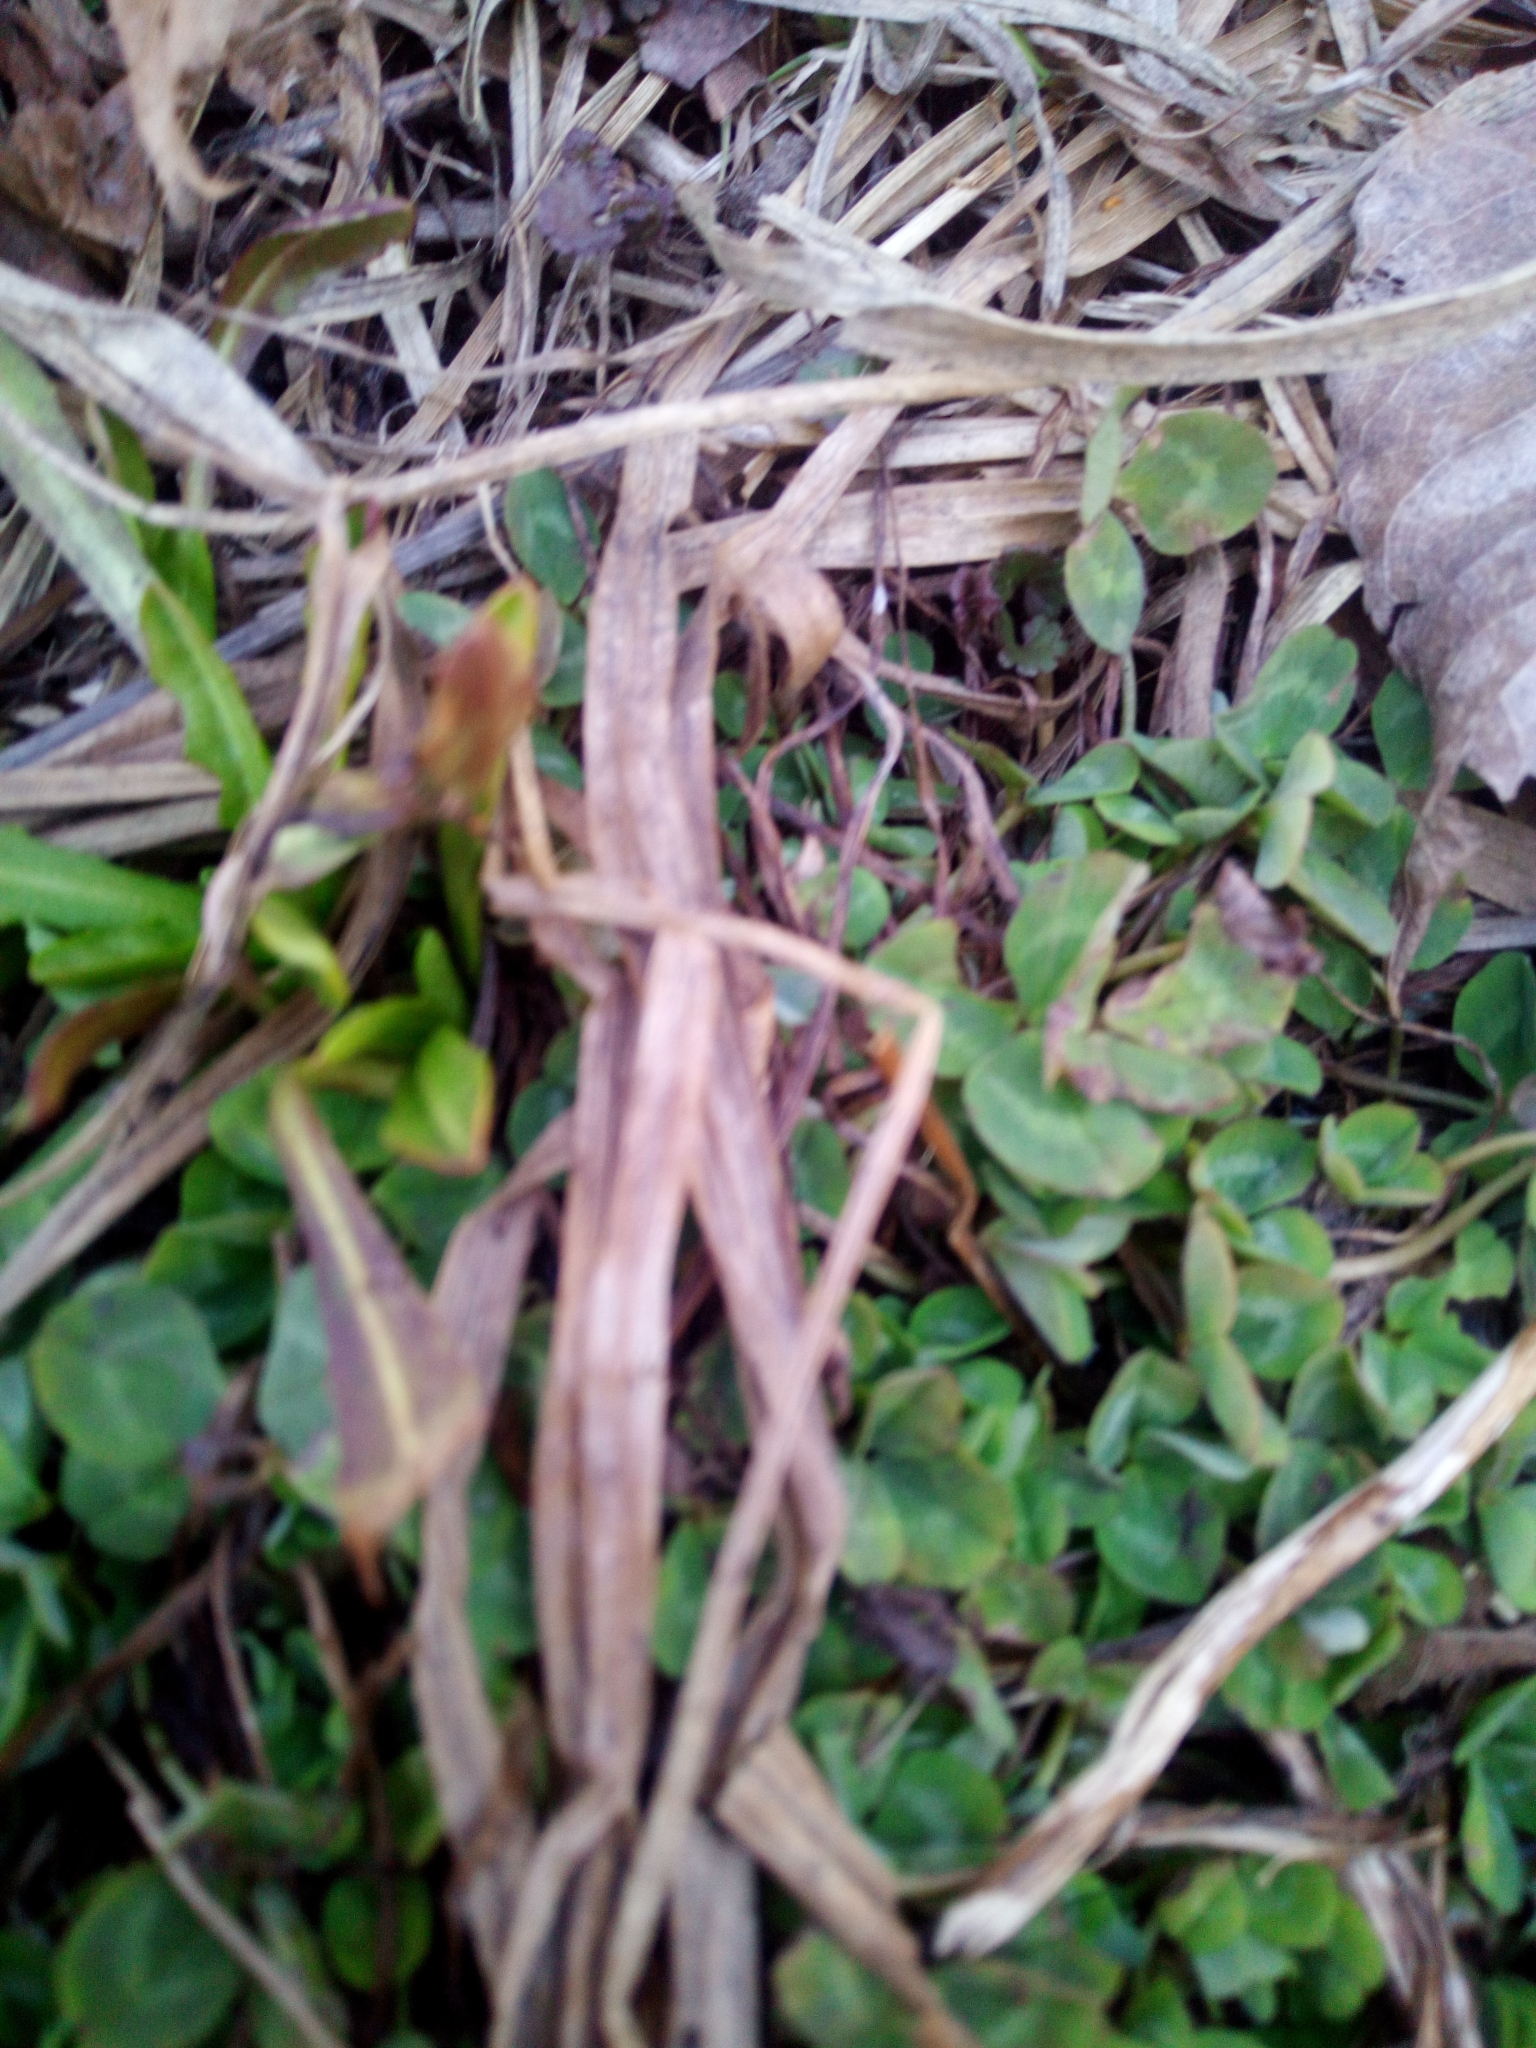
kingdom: Plantae
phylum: Tracheophyta
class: Magnoliopsida
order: Fabales
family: Fabaceae
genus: Trifolium
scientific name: Trifolium pratense
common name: Red clover
